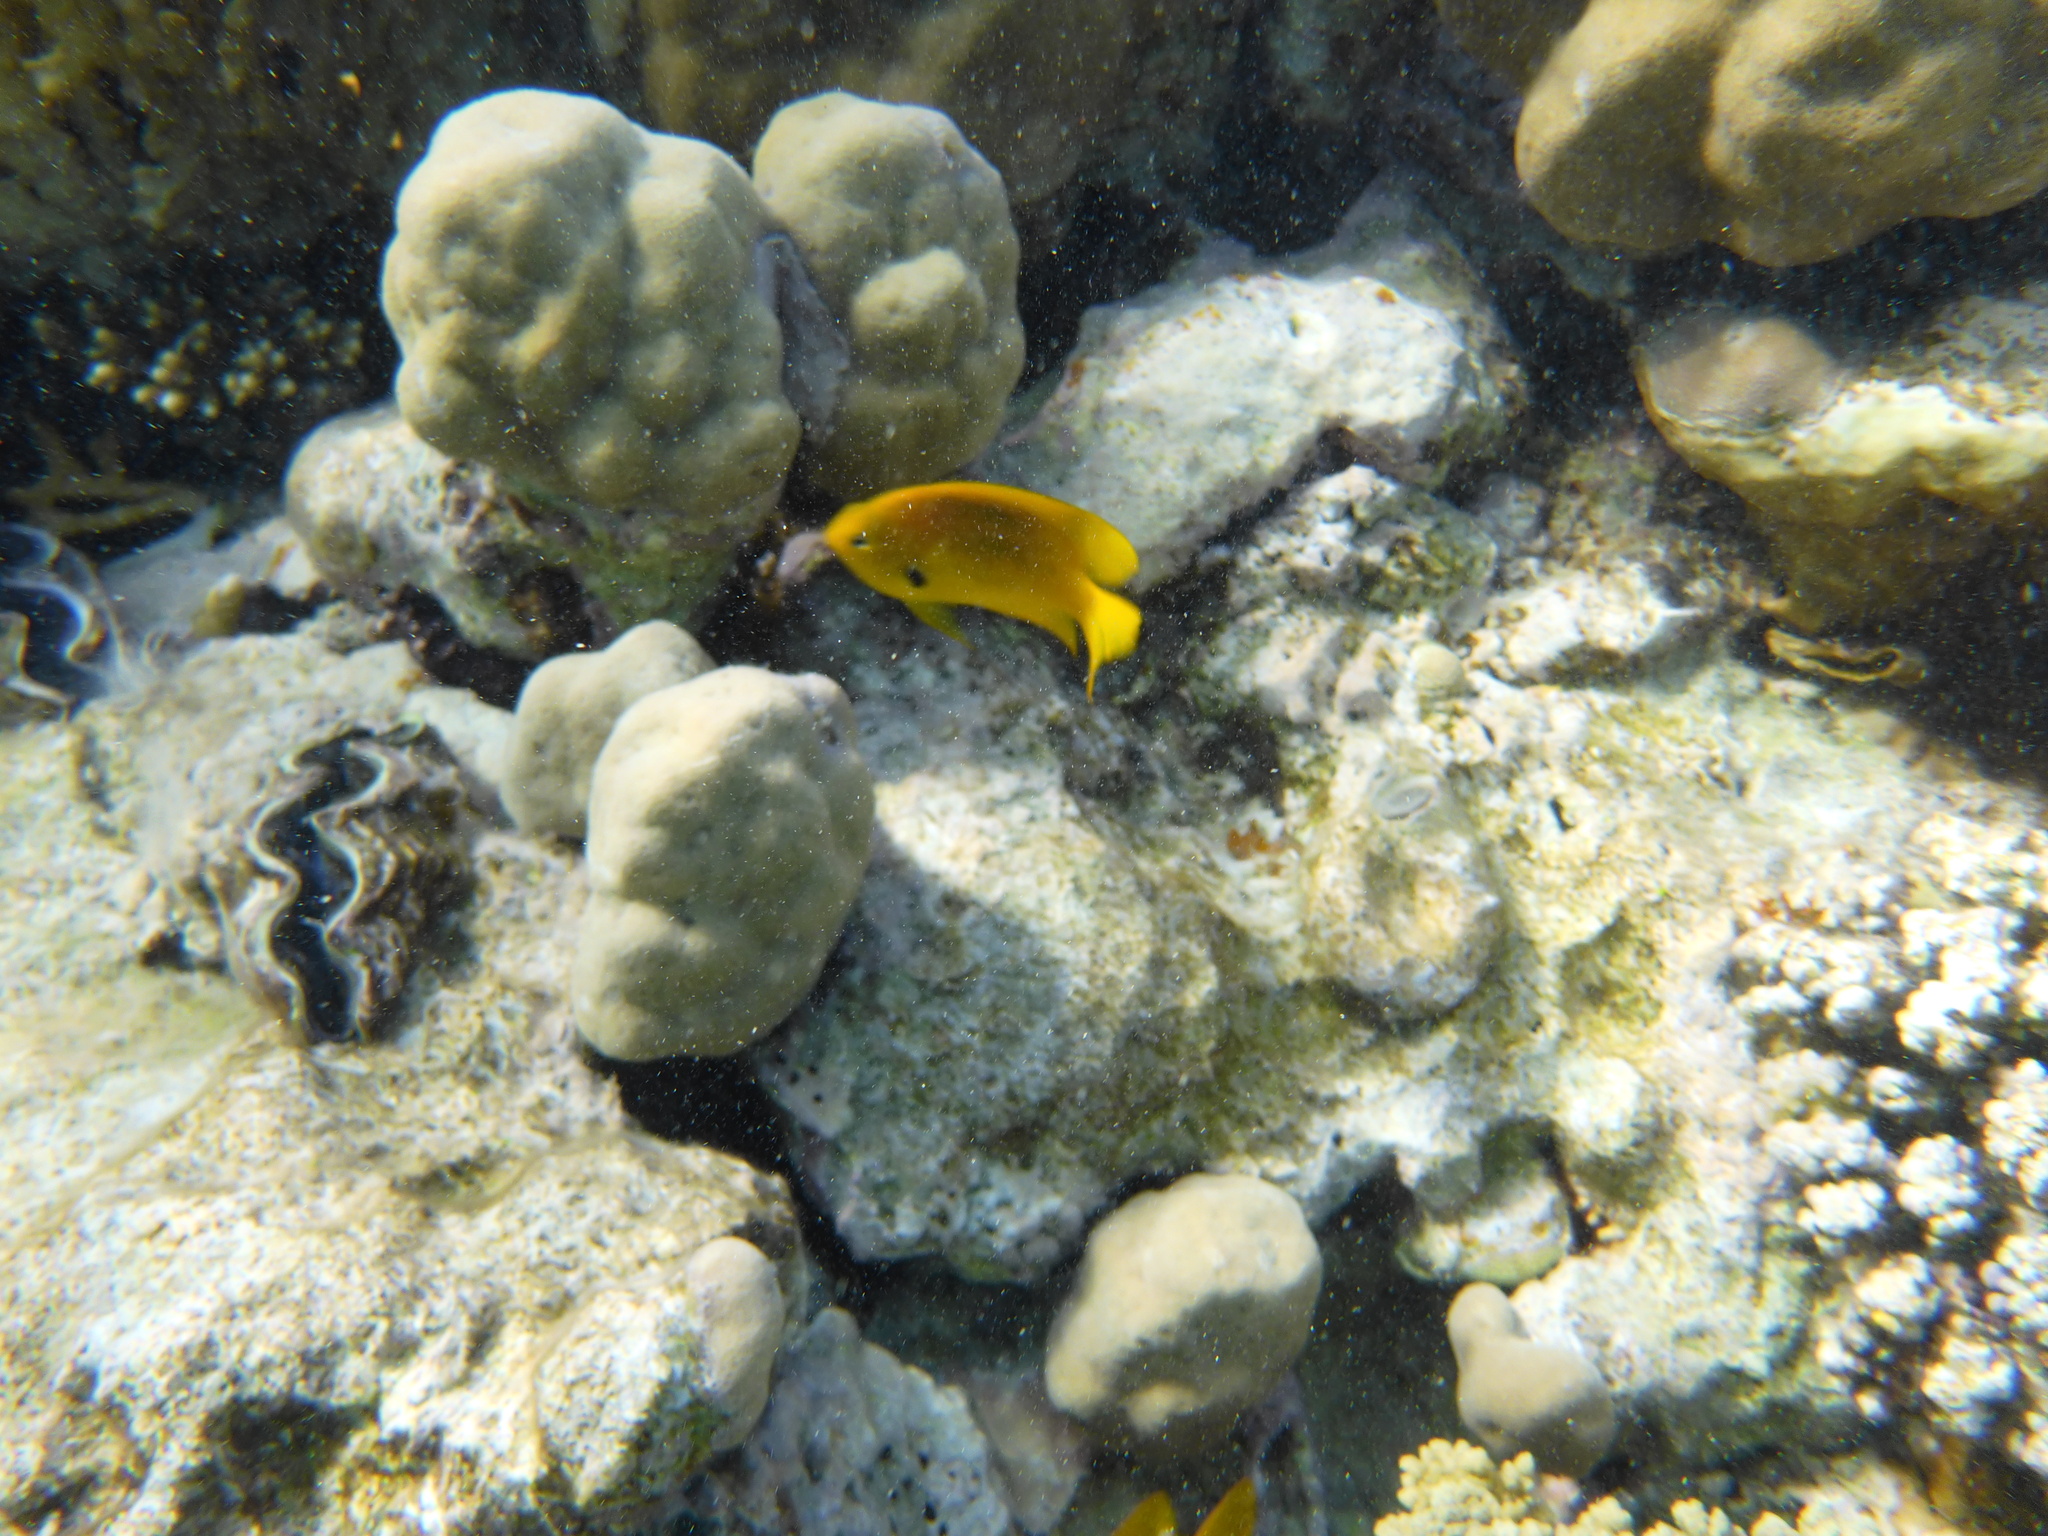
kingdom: Animalia
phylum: Chordata
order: Perciformes
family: Pomacentridae
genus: Pomacentrus
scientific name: Pomacentrus sulfureus
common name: Sulfur damsel
